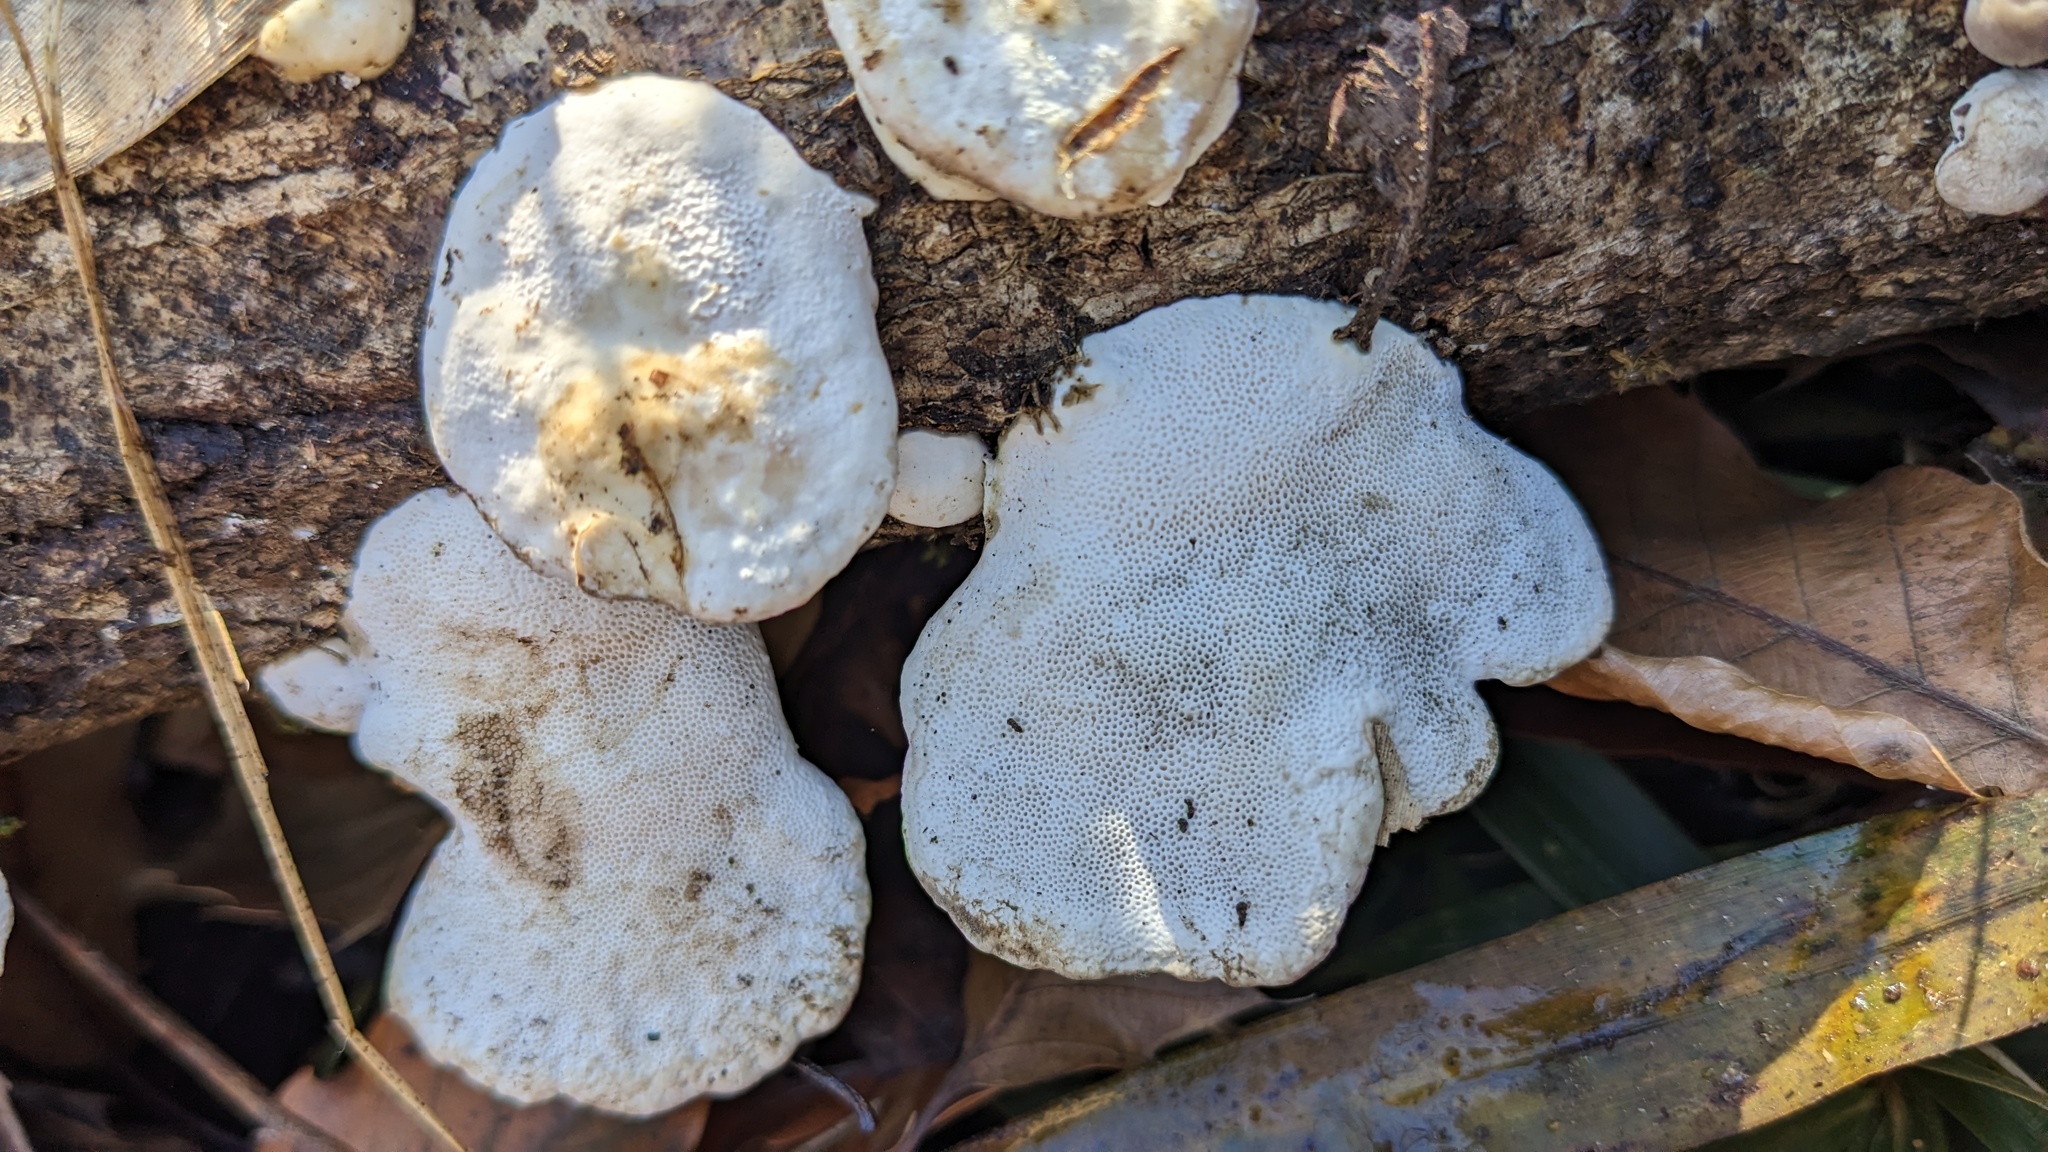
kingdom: Fungi
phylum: Basidiomycota
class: Agaricomycetes
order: Polyporales
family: Polyporaceae
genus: Trametes
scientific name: Trametes orientalis
